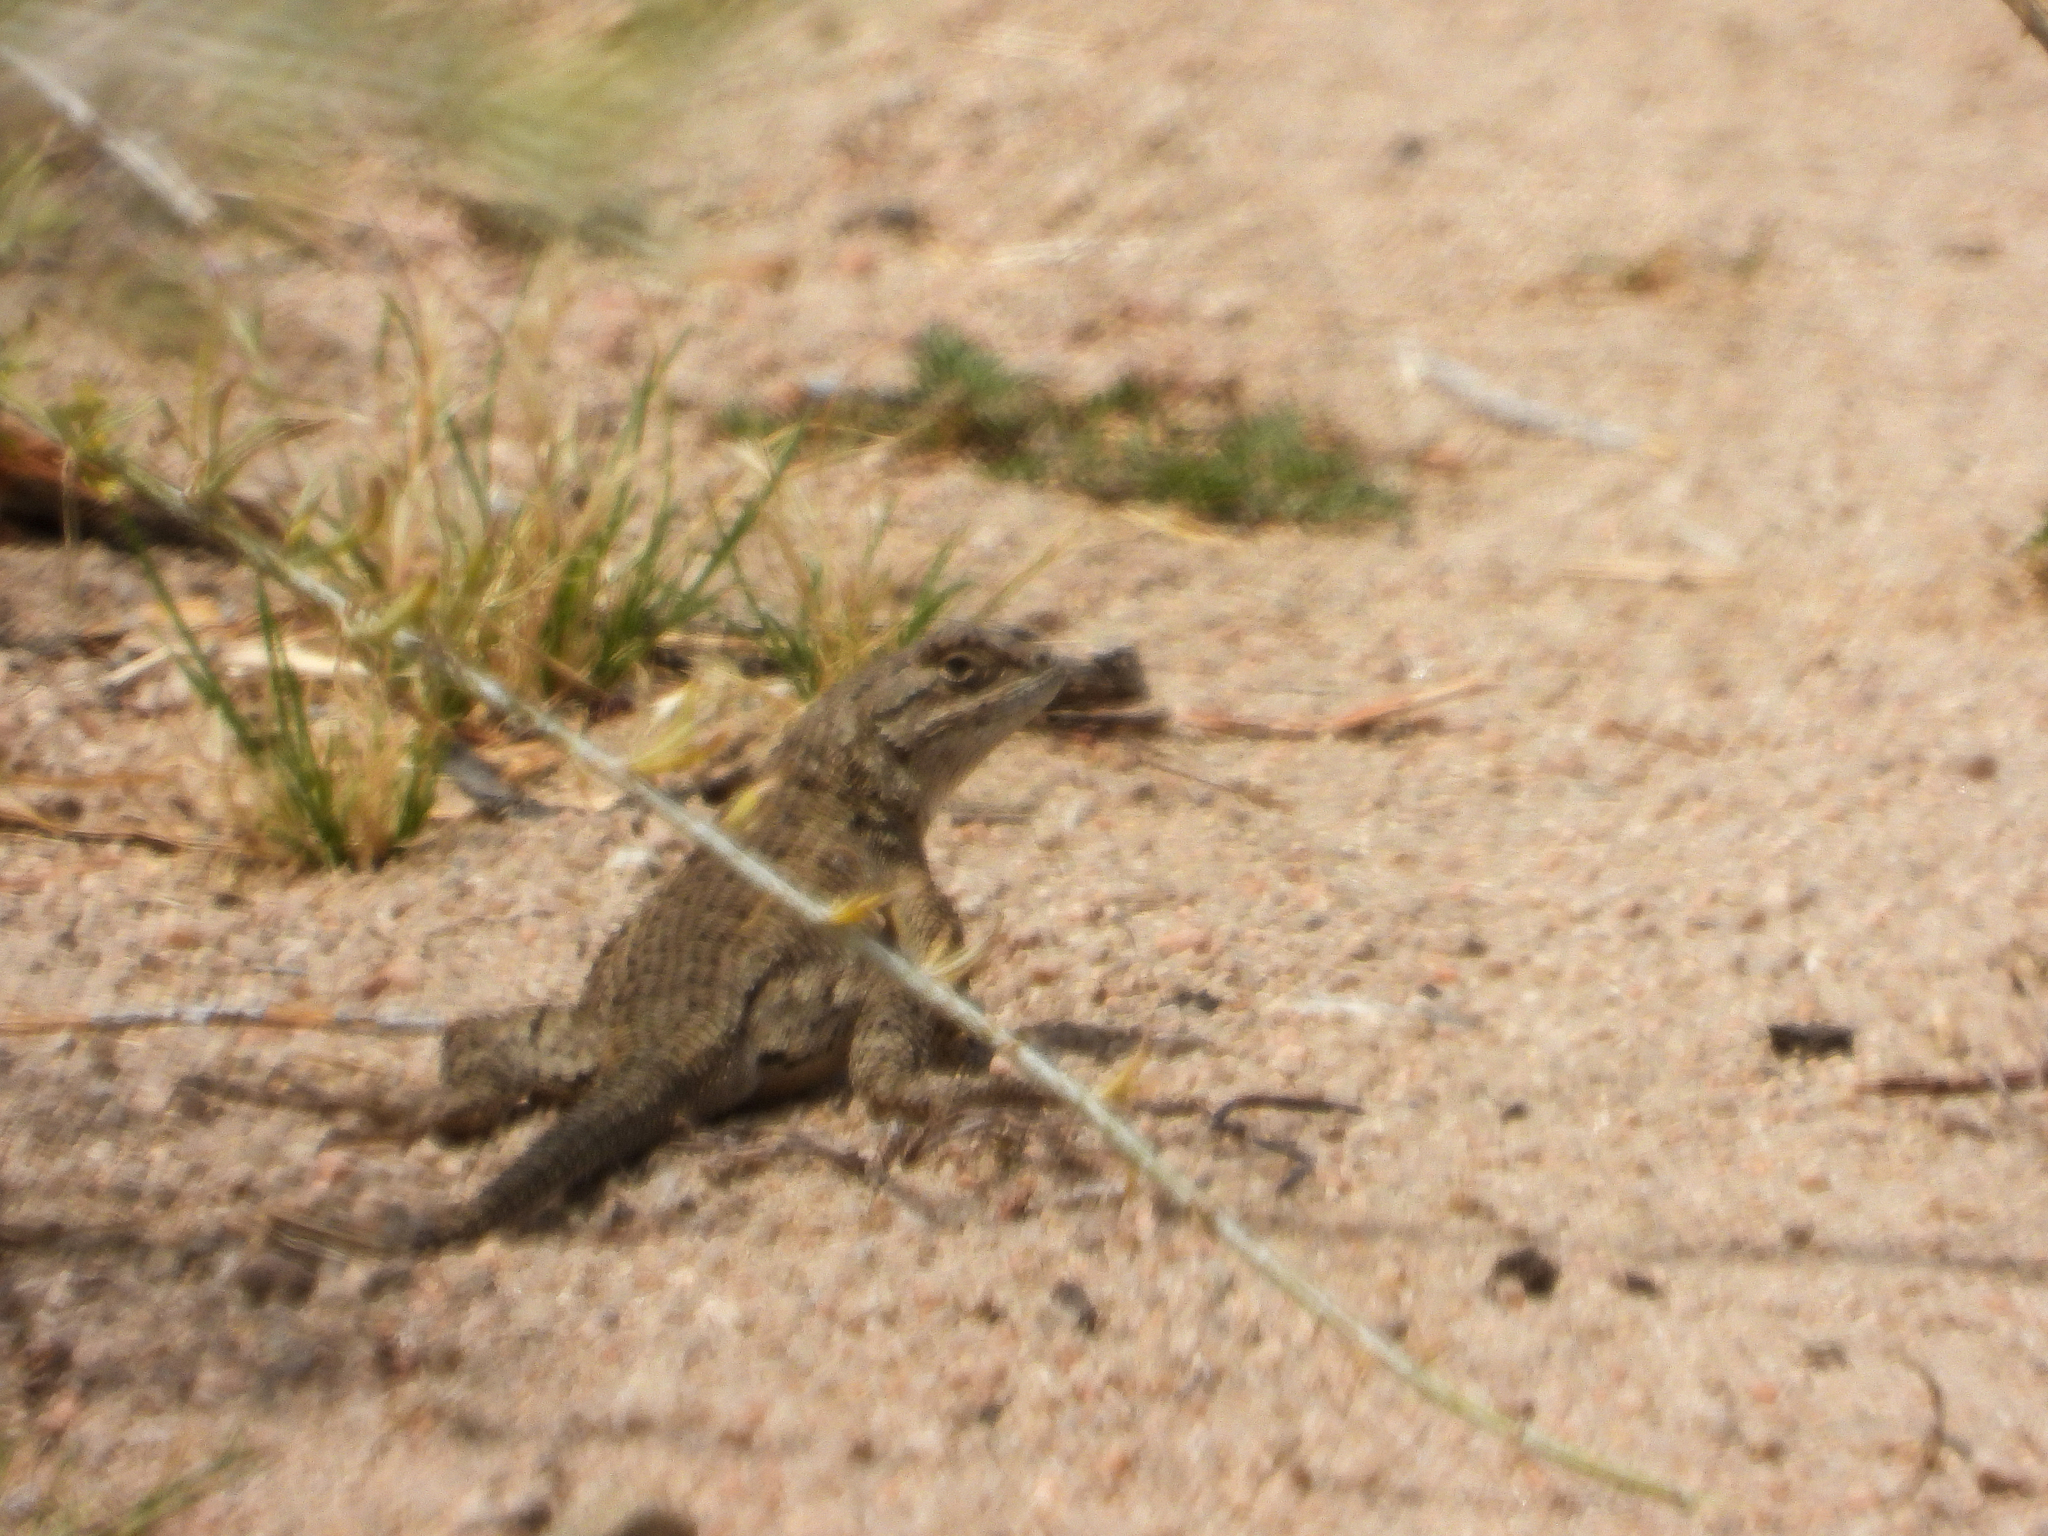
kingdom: Animalia
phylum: Chordata
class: Squamata
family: Phrynosomatidae
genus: Sceloporus
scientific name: Sceloporus occidentalis
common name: Western fence lizard
